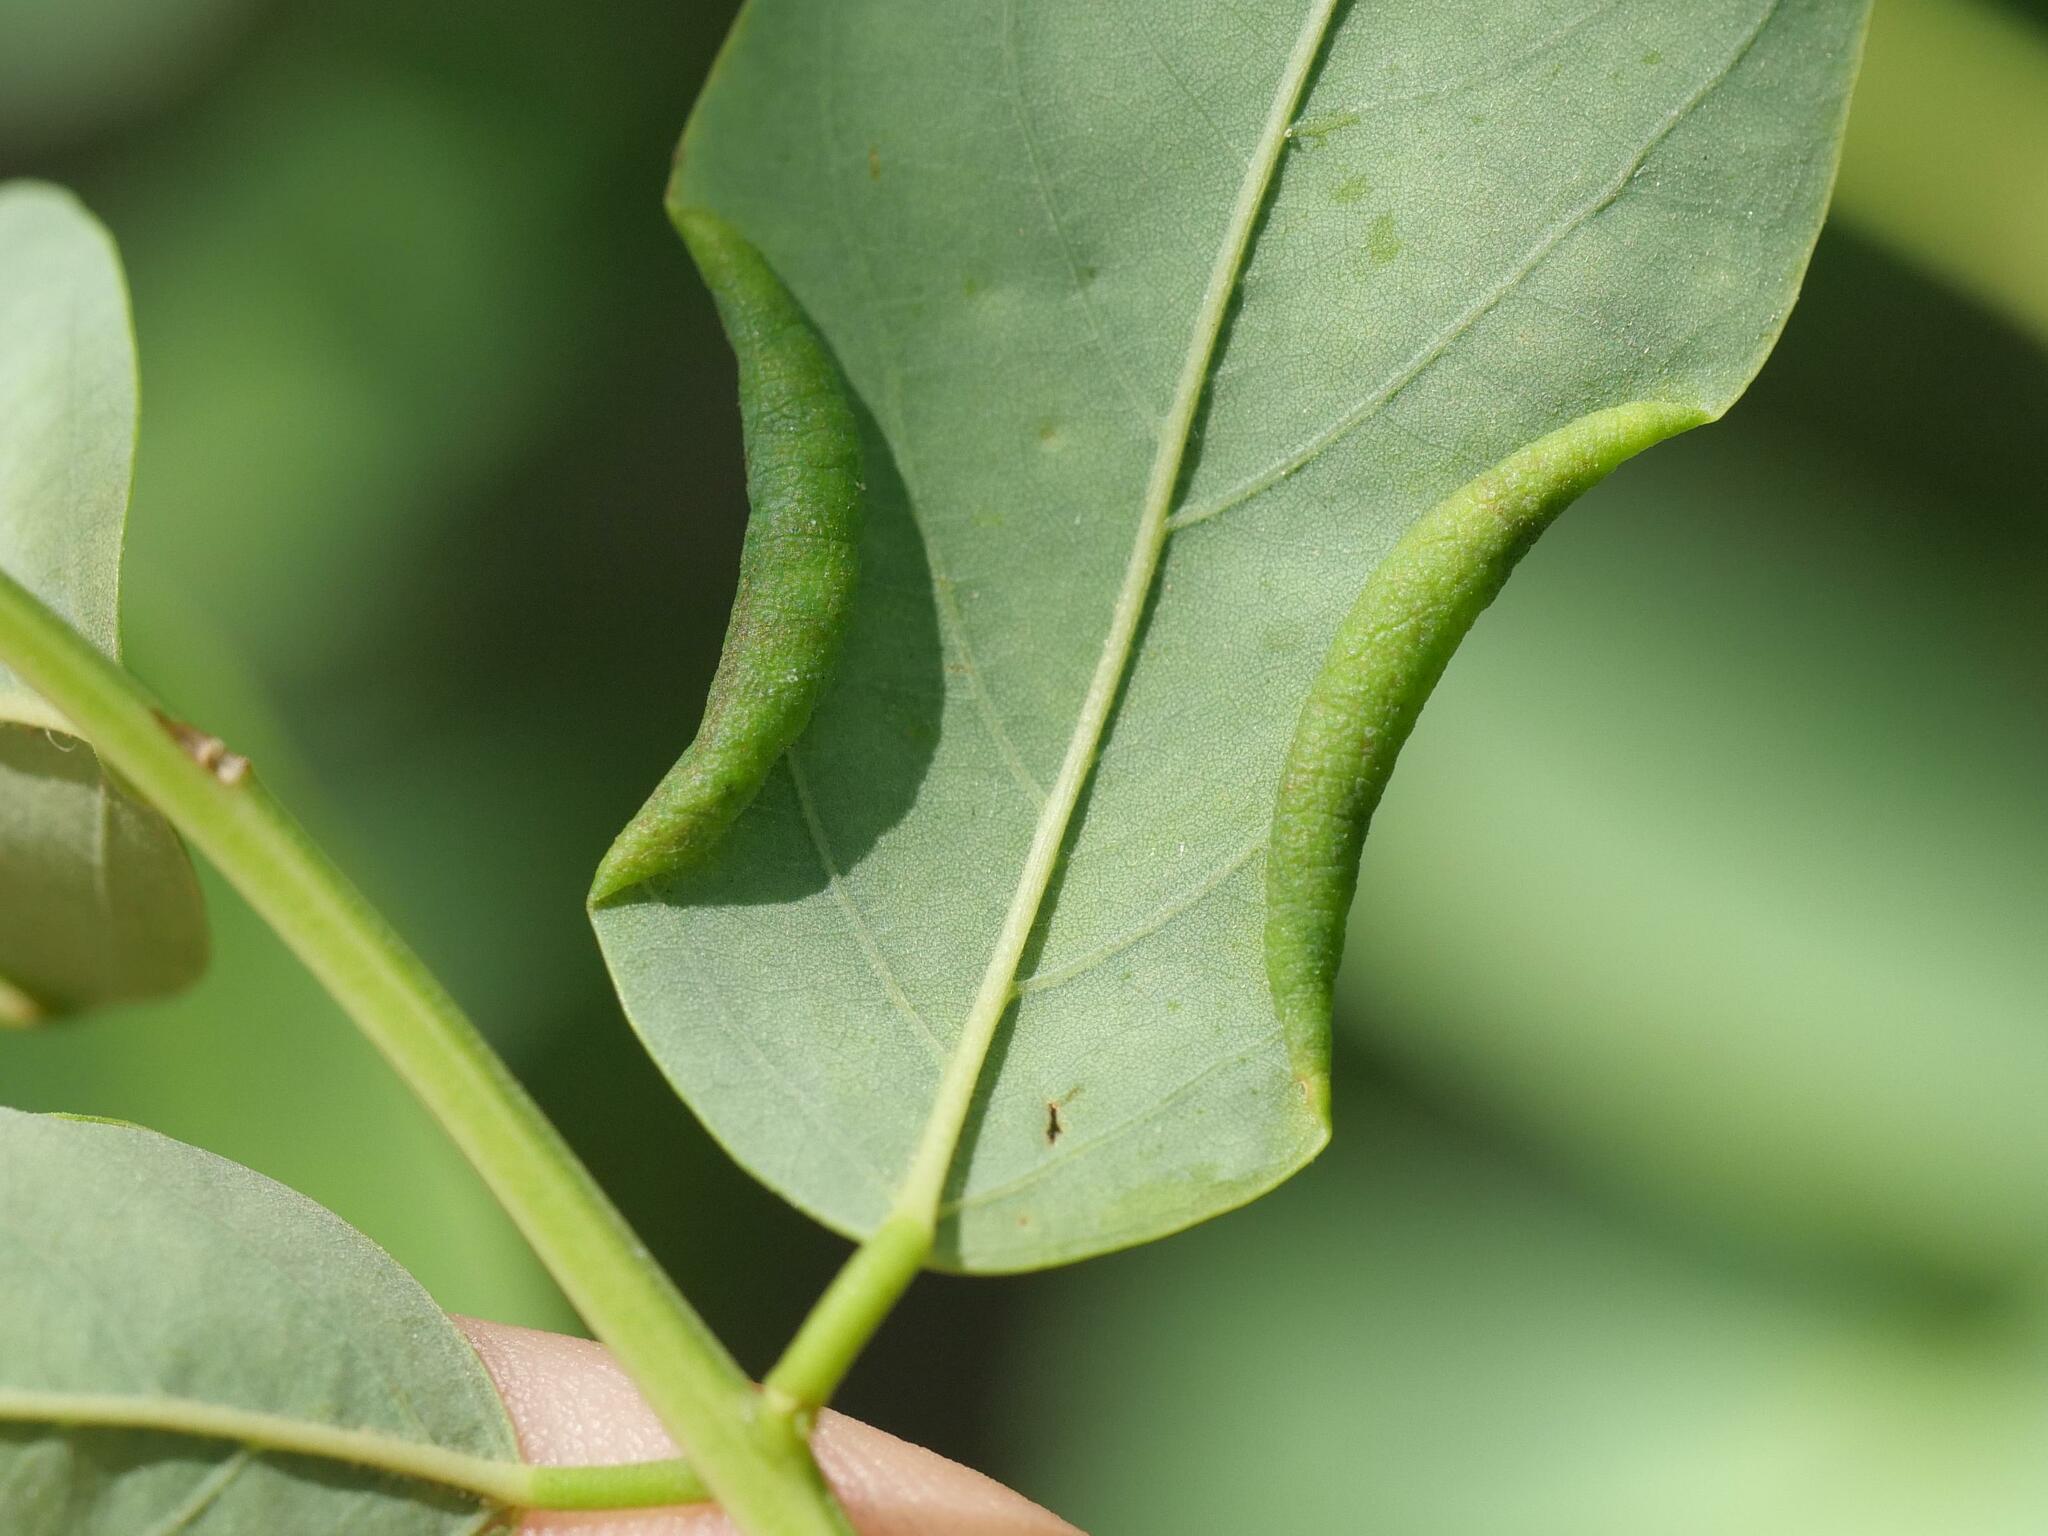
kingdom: Animalia
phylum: Arthropoda
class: Insecta
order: Diptera
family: Cecidomyiidae
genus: Obolodiplosis
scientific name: Obolodiplosis robiniae
